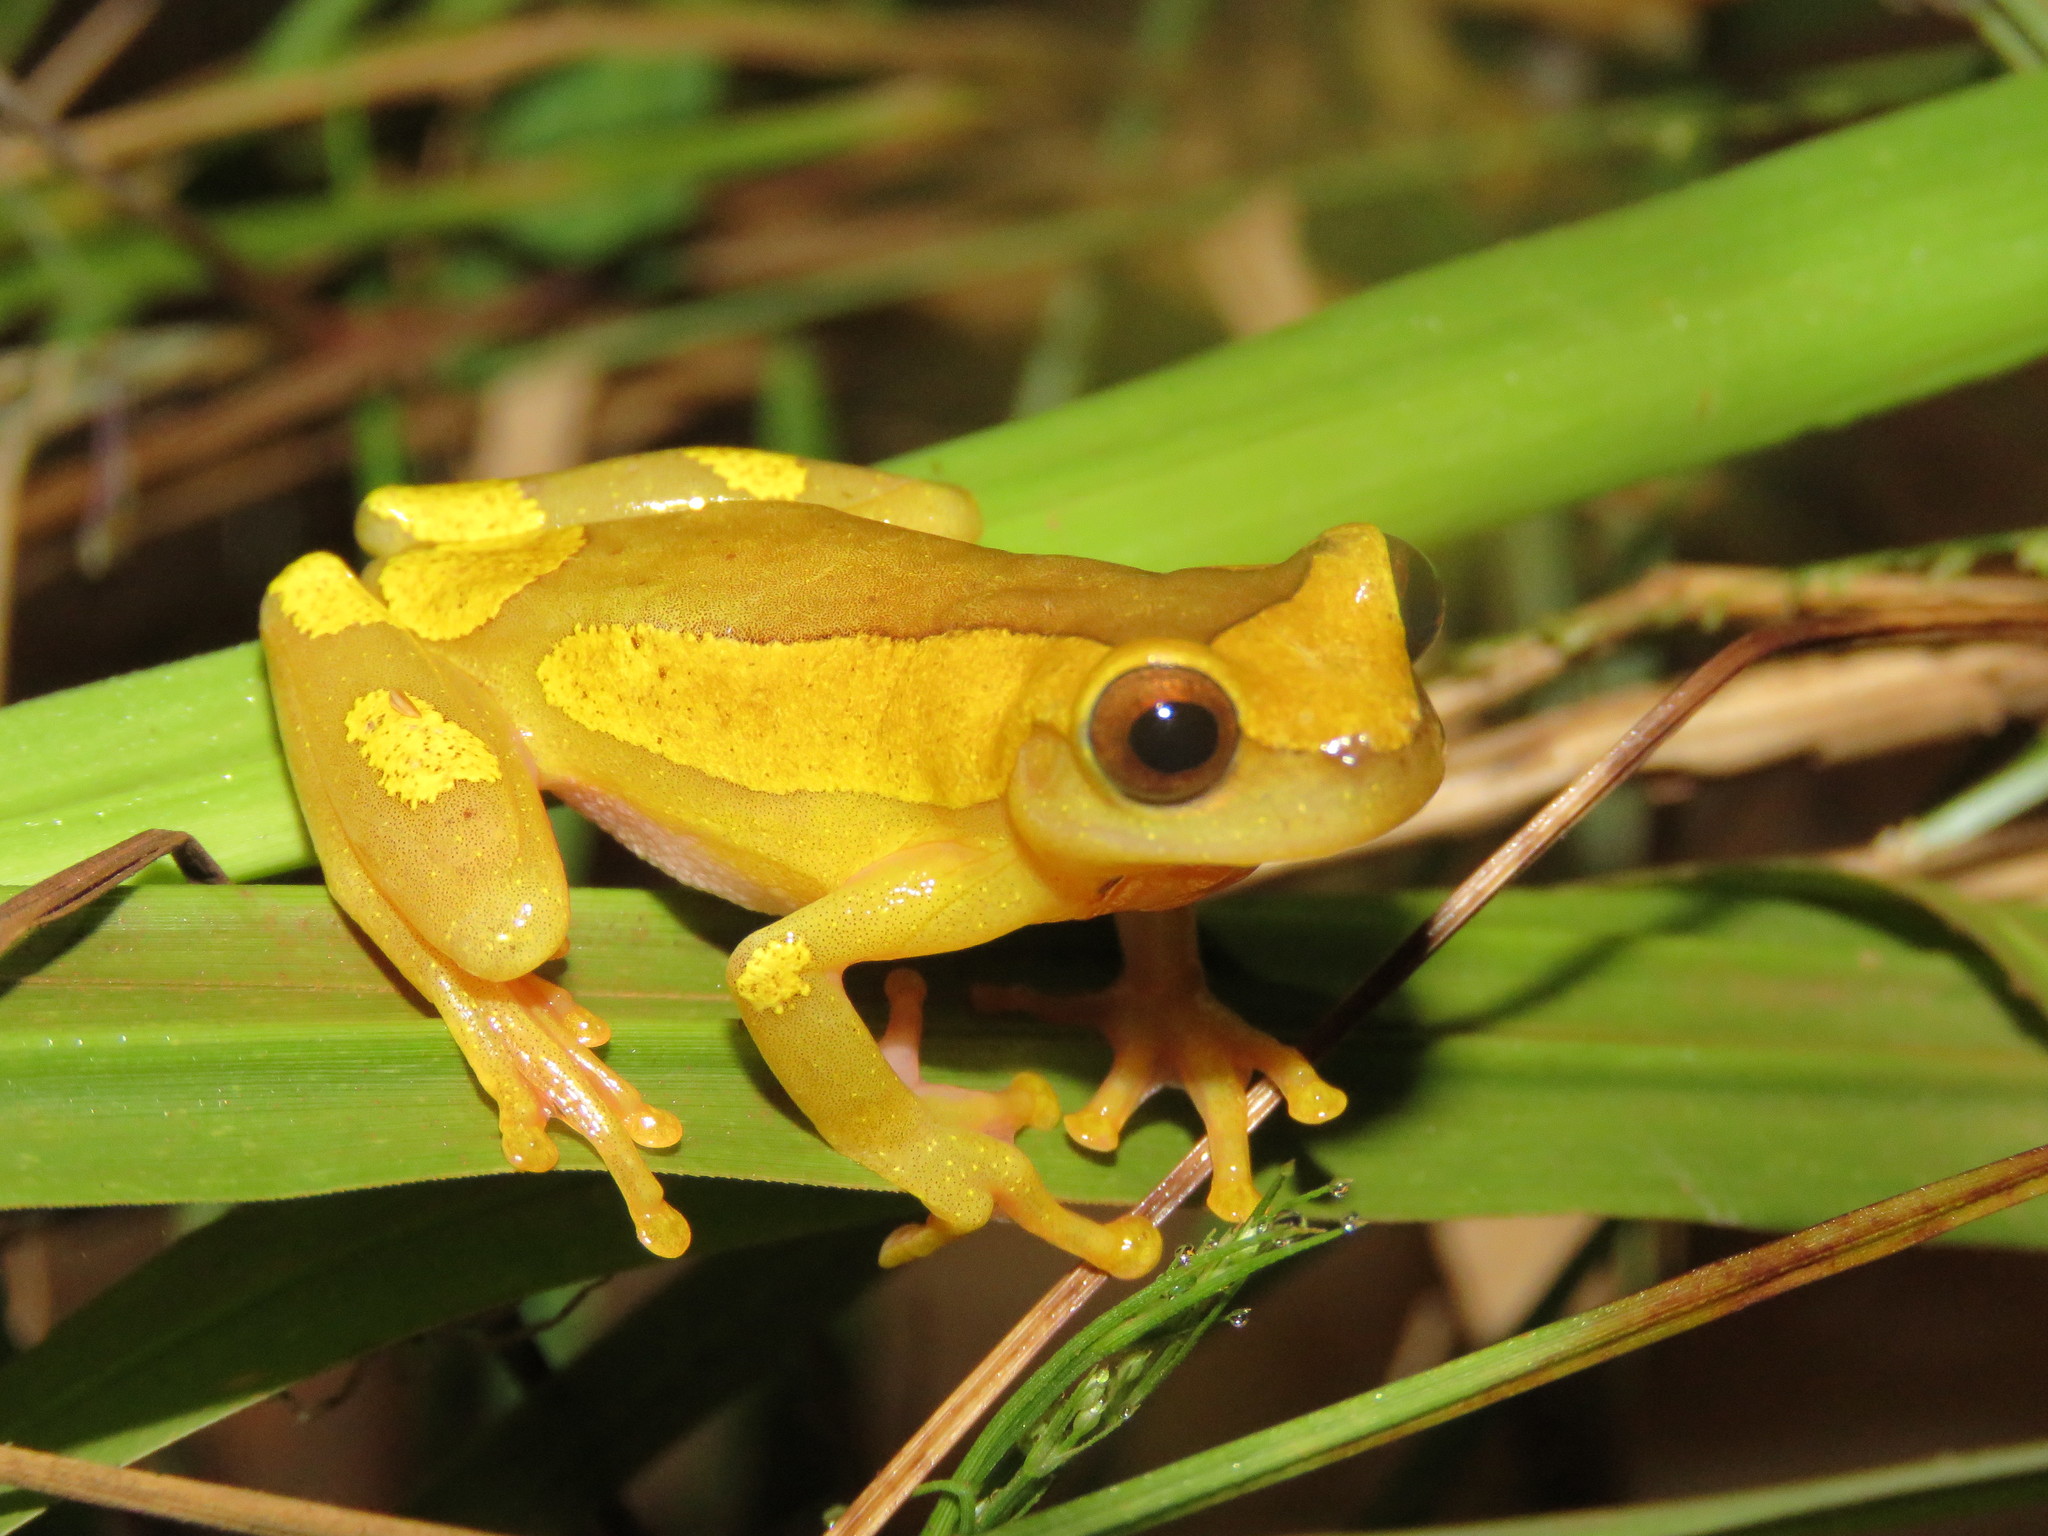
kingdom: Animalia
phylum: Chordata
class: Amphibia
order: Anura
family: Hylidae
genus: Dendropsophus
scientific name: Dendropsophus arndti
